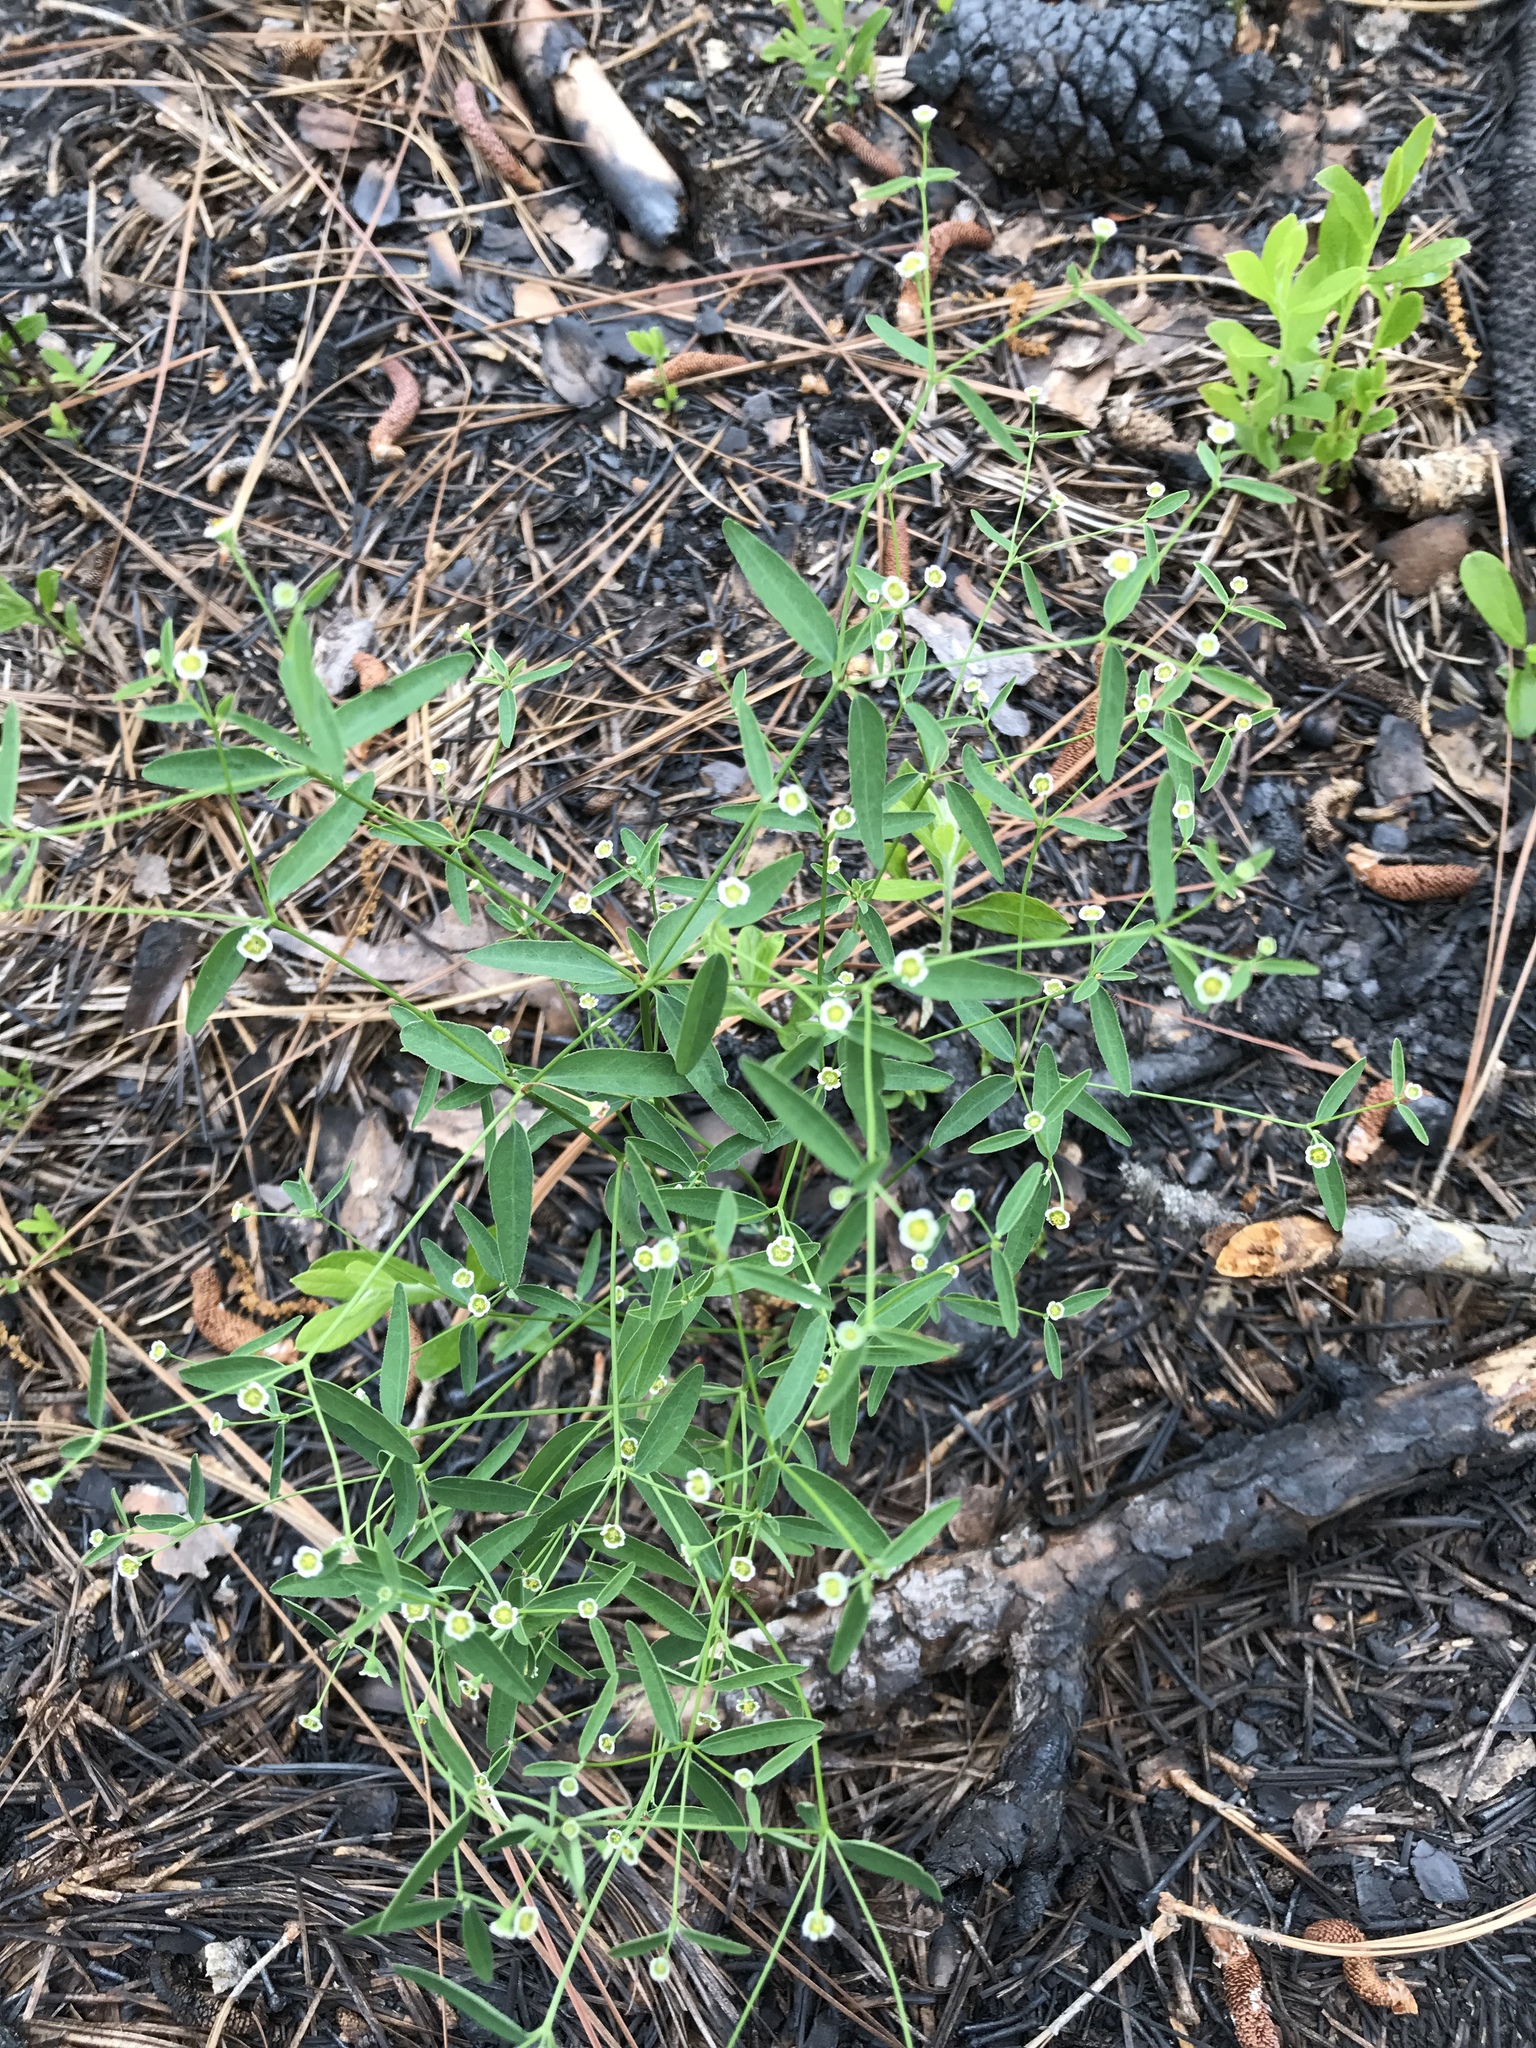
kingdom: Plantae
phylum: Tracheophyta
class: Magnoliopsida
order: Malpighiales
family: Euphorbiaceae
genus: Euphorbia
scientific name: Euphorbia curtisii
